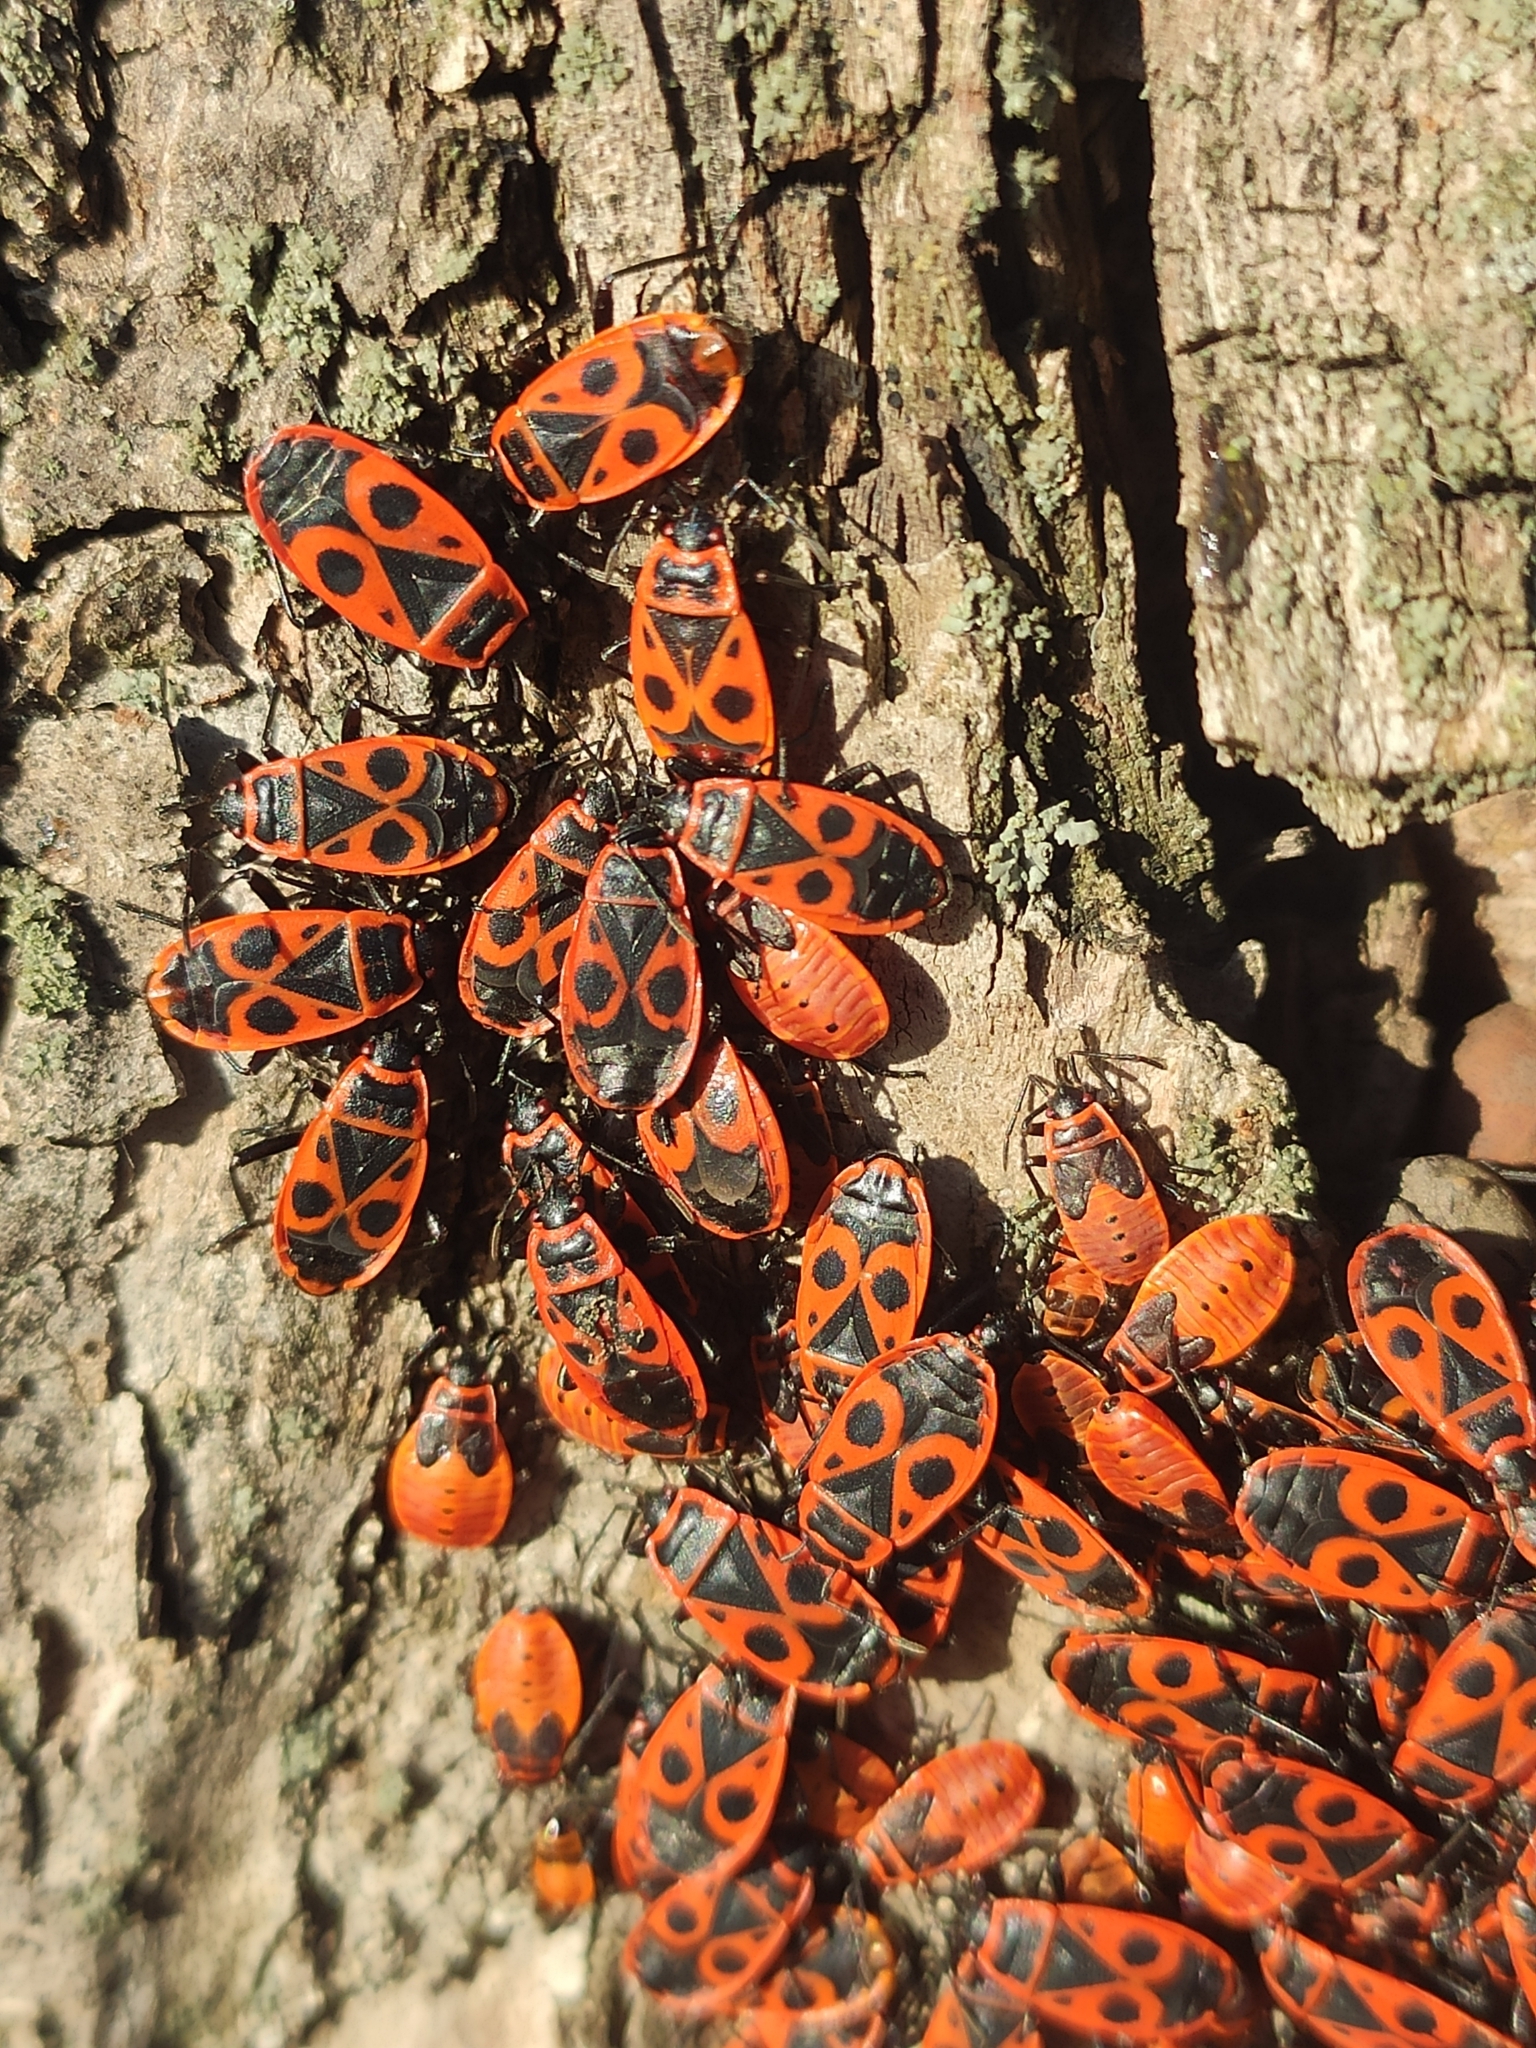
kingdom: Animalia
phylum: Arthropoda
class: Insecta
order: Hemiptera
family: Pyrrhocoridae
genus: Pyrrhocoris
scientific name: Pyrrhocoris apterus
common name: Firebug
